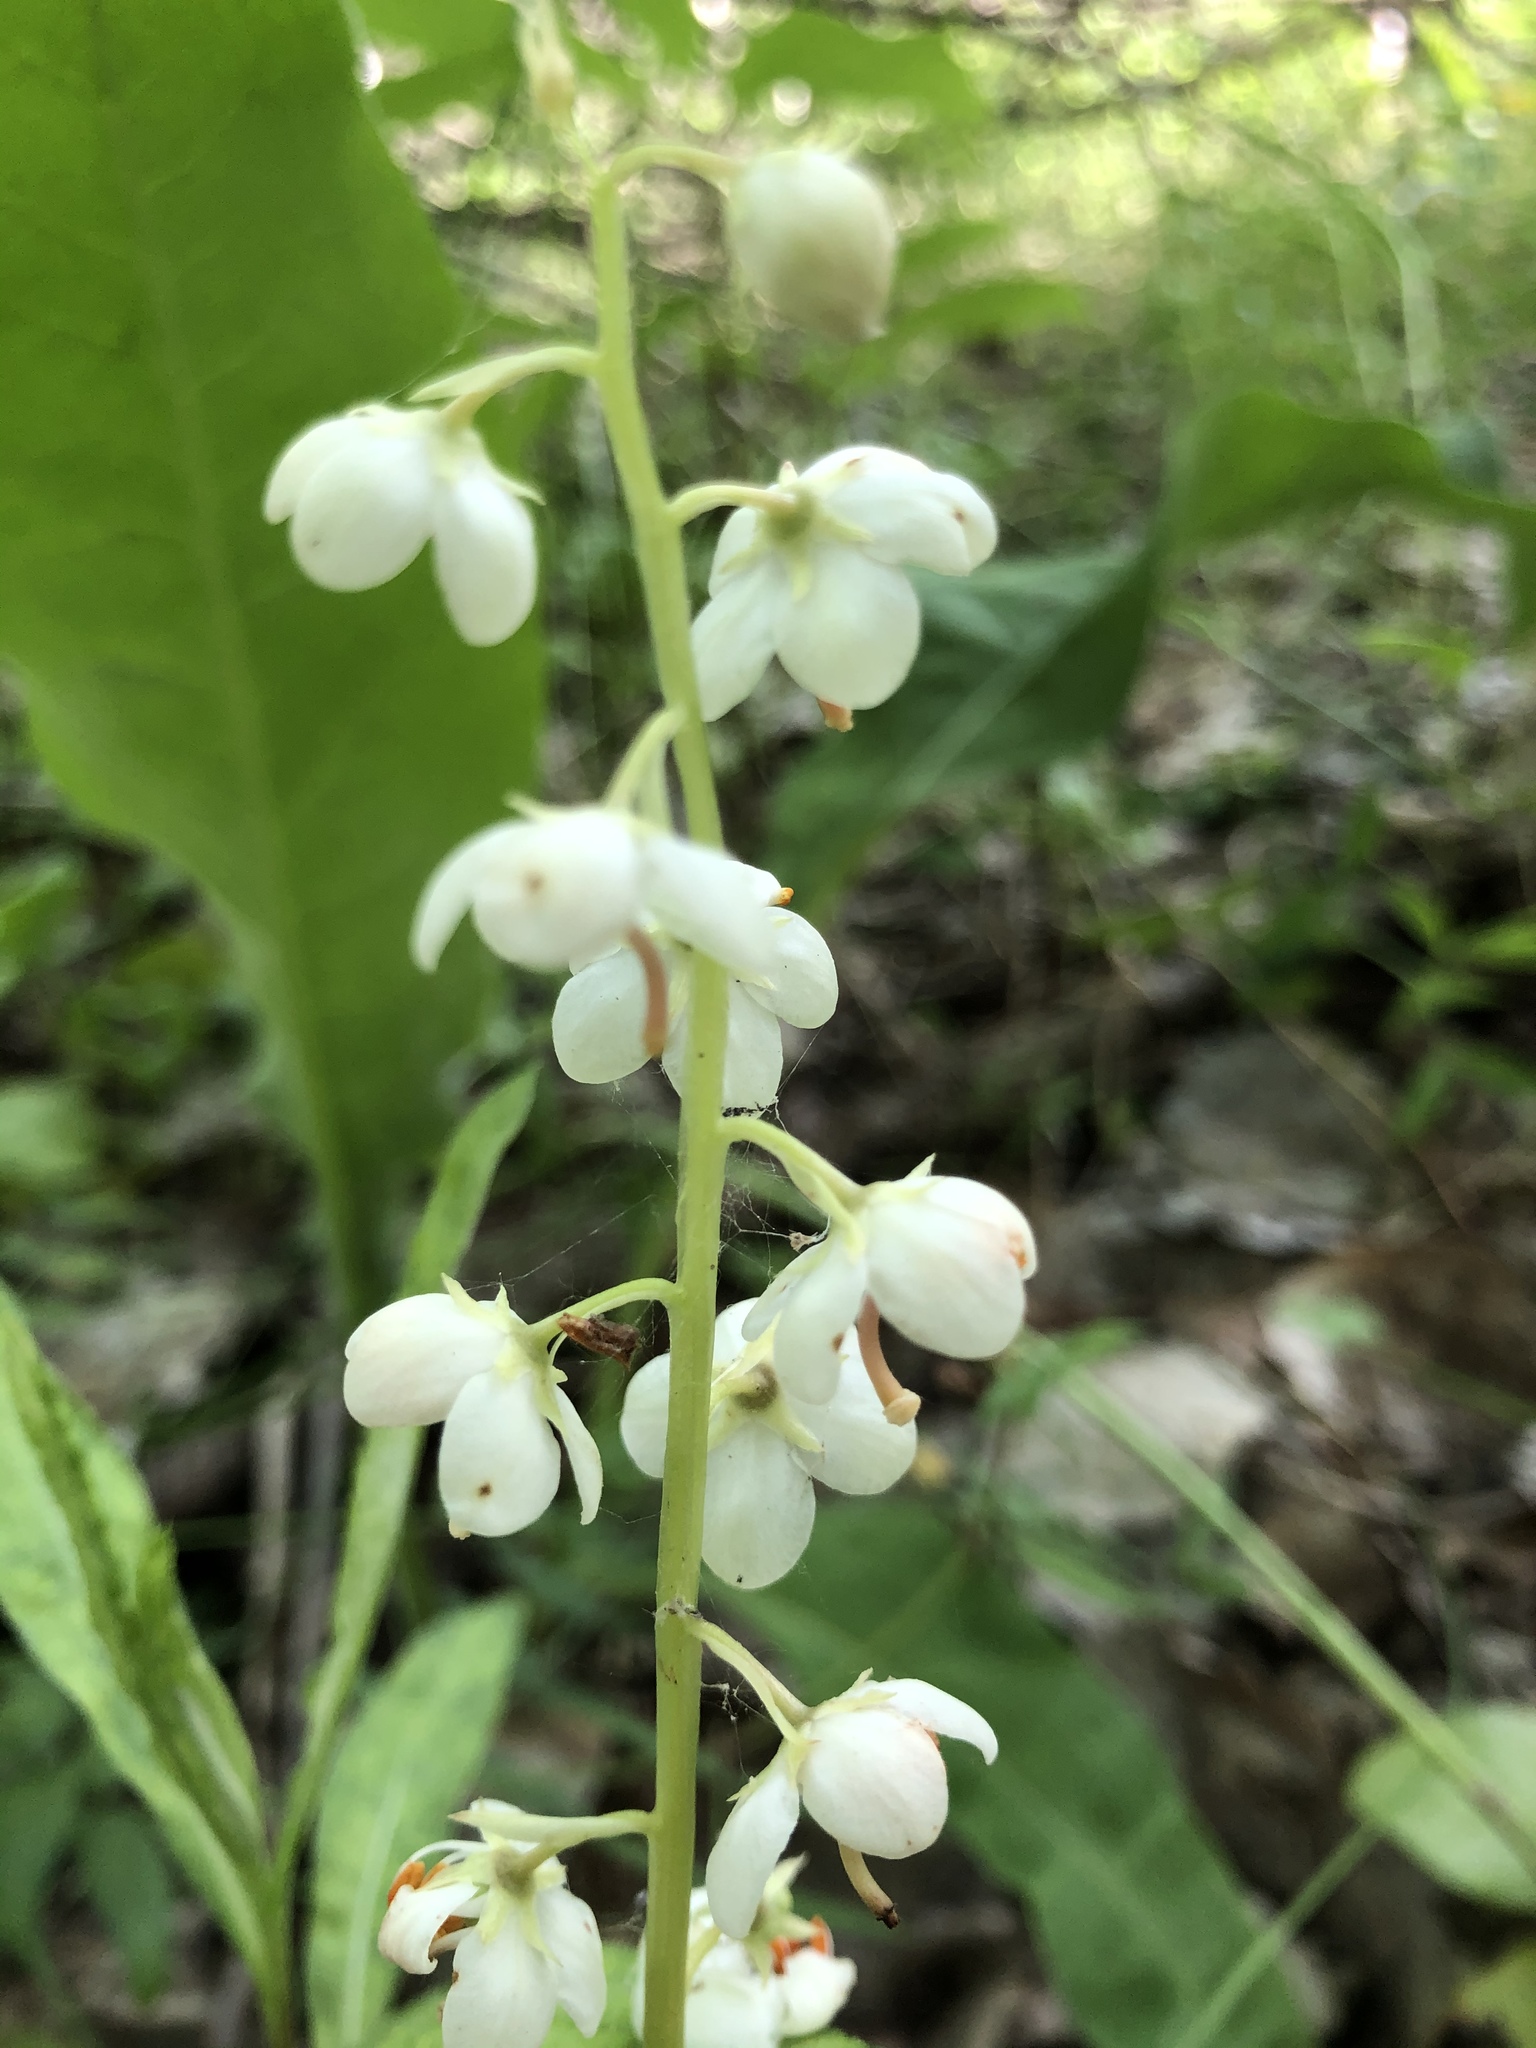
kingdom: Plantae
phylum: Tracheophyta
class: Magnoliopsida
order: Ericales
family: Ericaceae
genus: Pyrola
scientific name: Pyrola rotundifolia
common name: Round-leaved wintergreen
